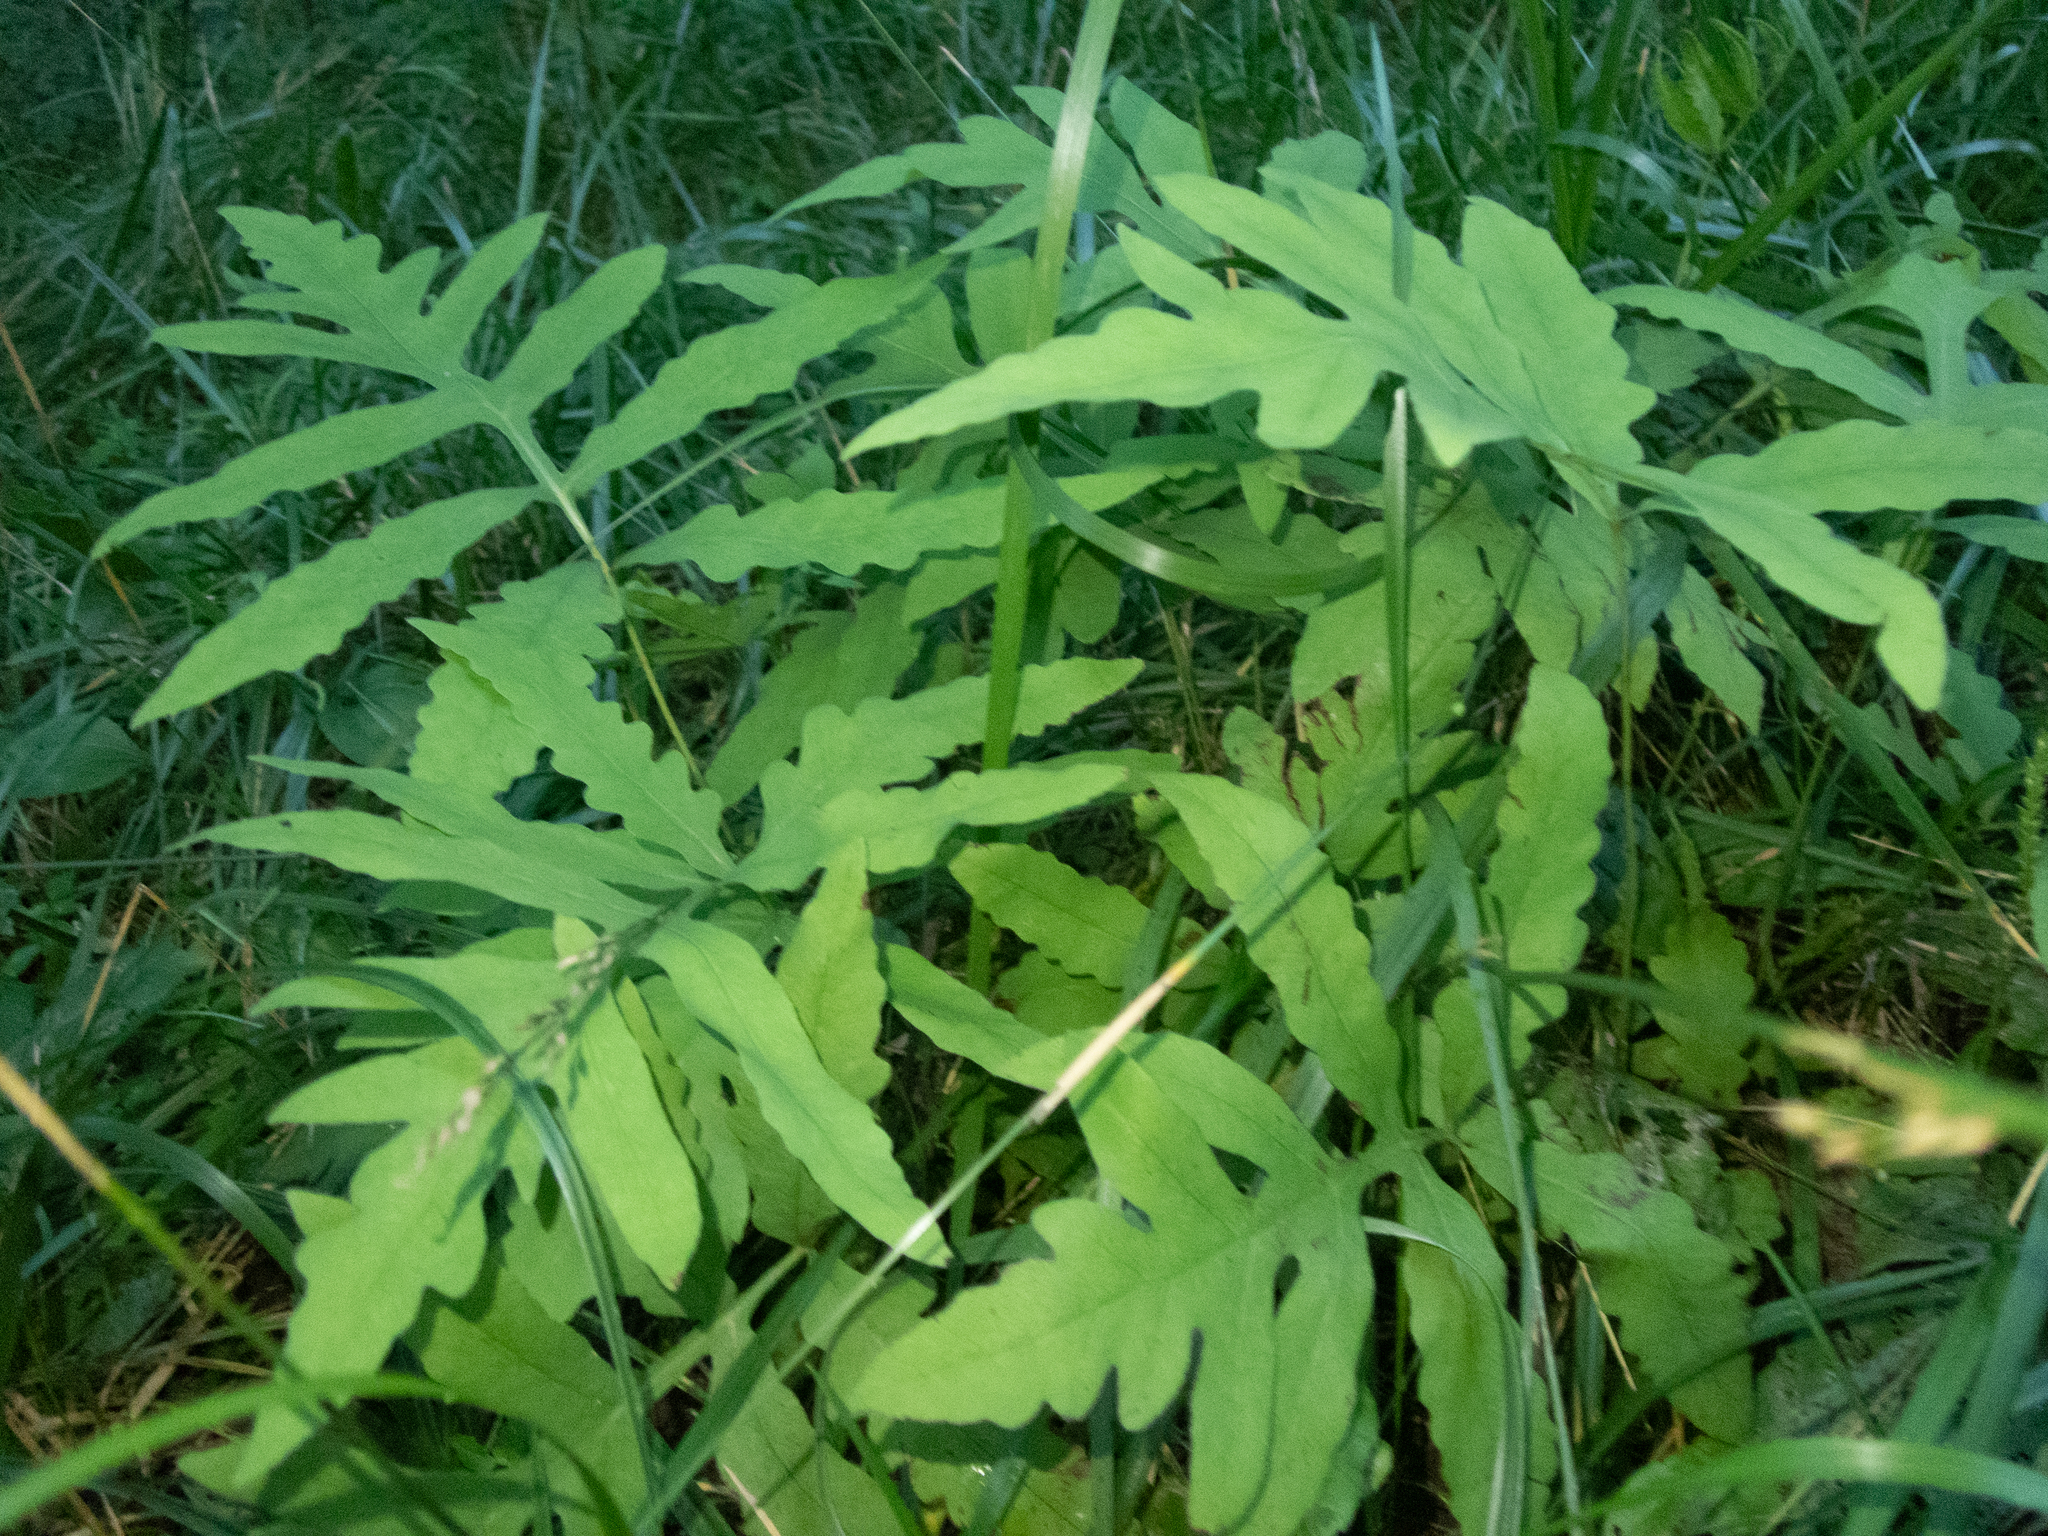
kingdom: Plantae
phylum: Tracheophyta
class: Polypodiopsida
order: Polypodiales
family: Onocleaceae
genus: Onoclea
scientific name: Onoclea sensibilis
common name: Sensitive fern
